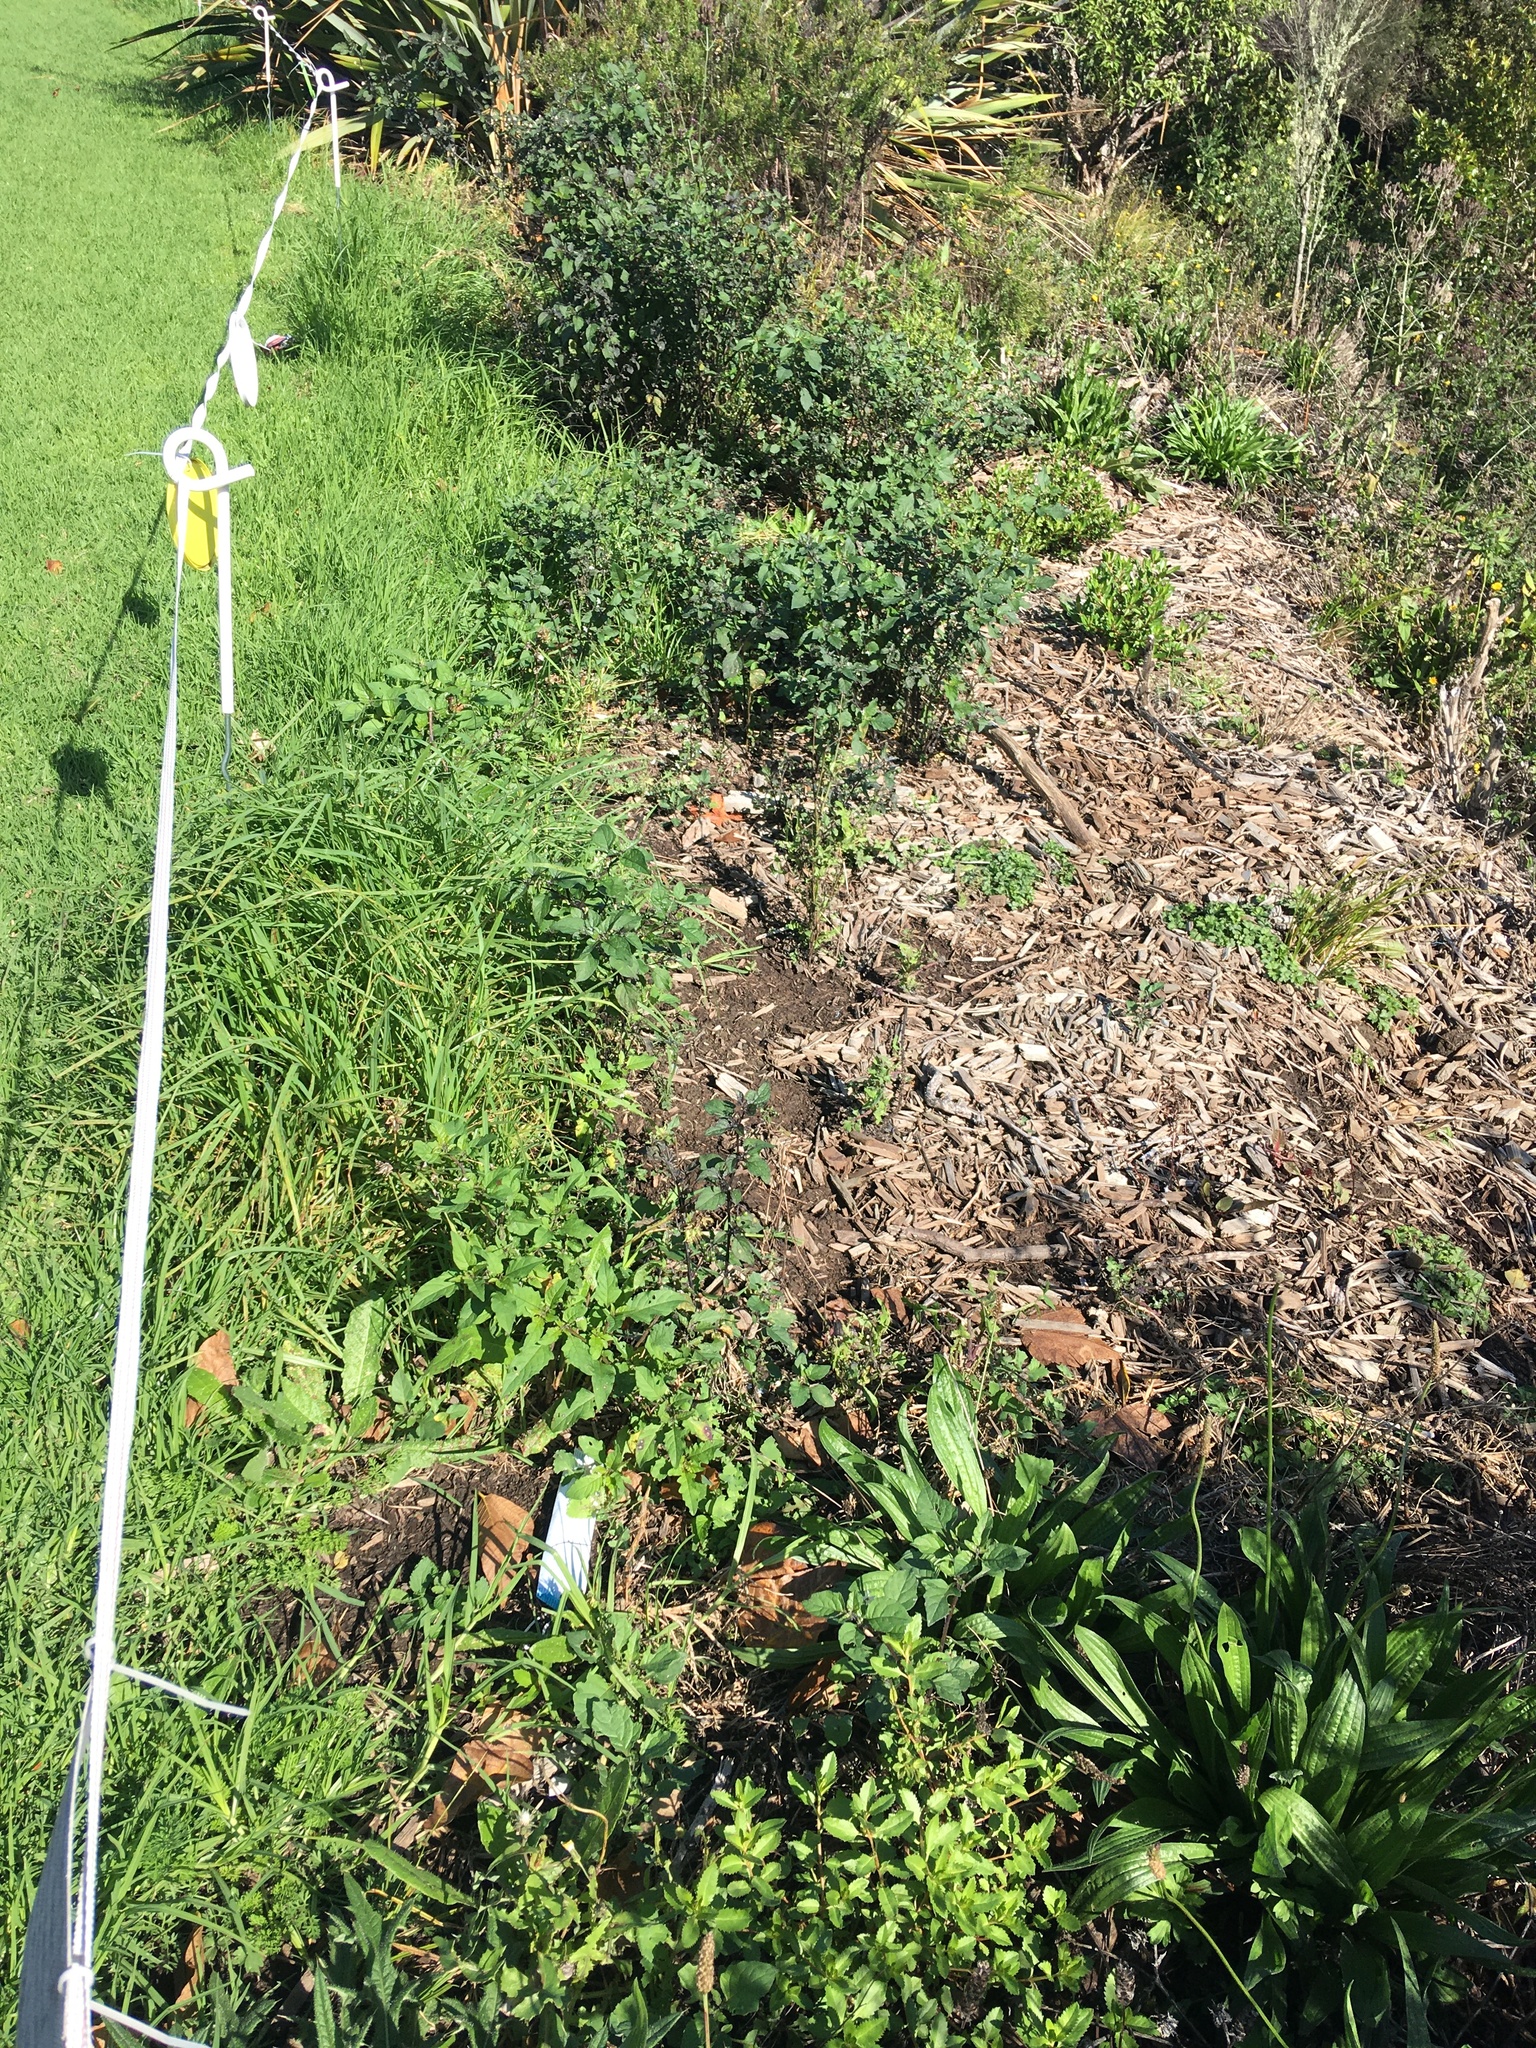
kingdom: Plantae
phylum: Tracheophyta
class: Magnoliopsida
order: Lamiales
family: Plantaginaceae
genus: Plantago
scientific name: Plantago lanceolata
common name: Ribwort plantain
